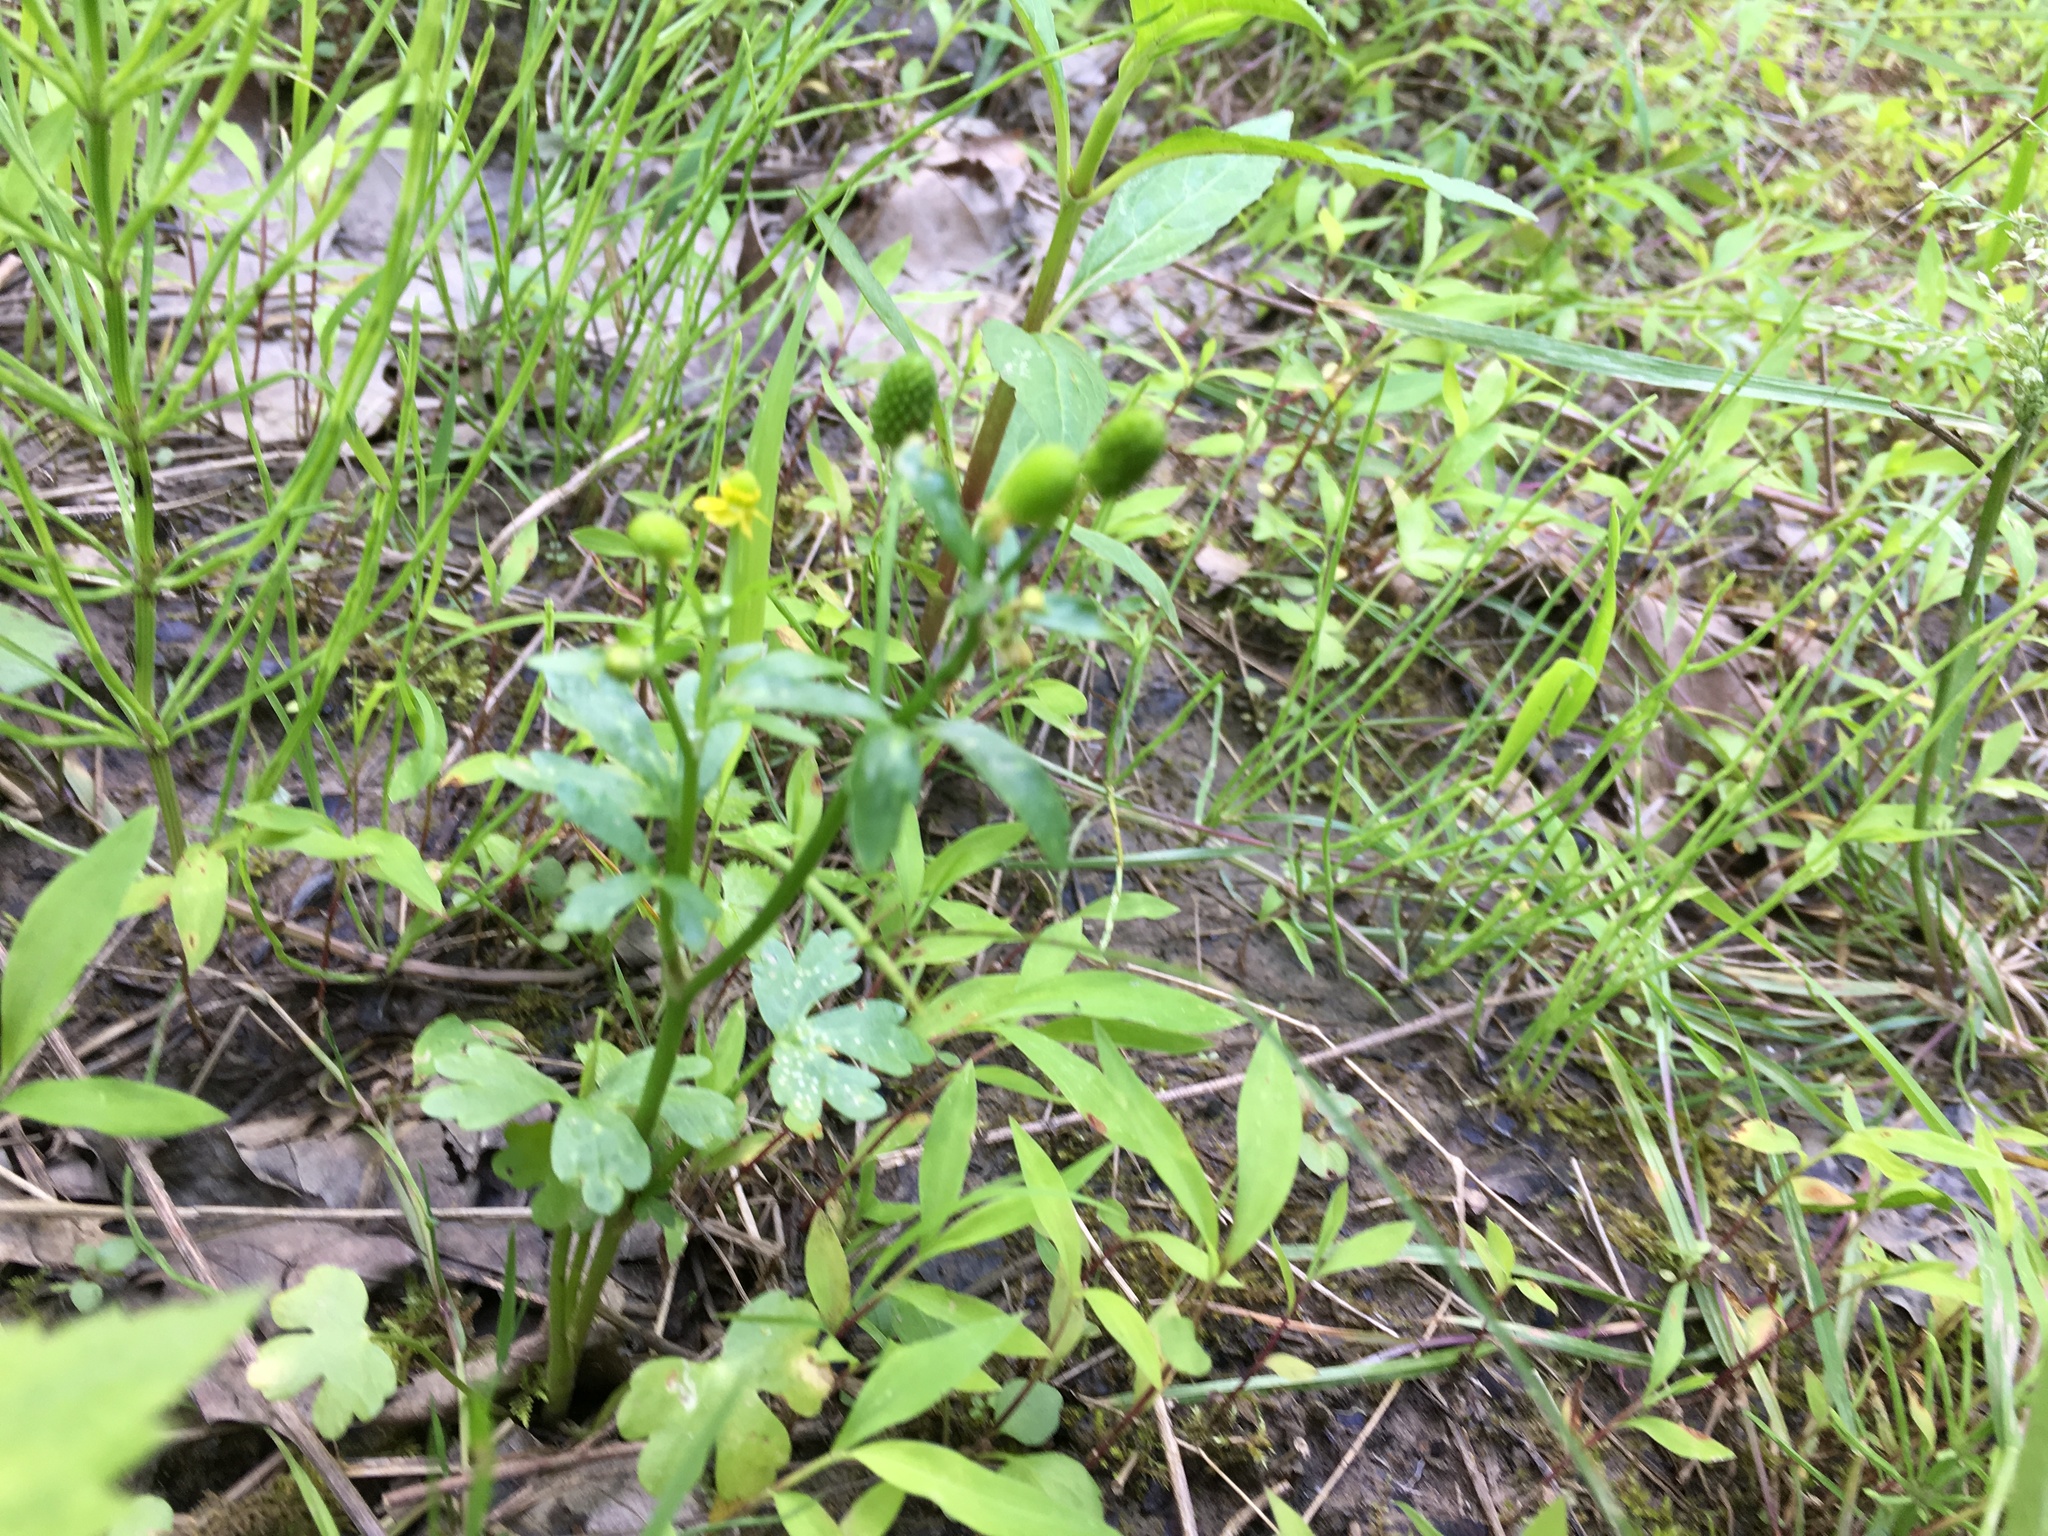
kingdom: Plantae
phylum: Tracheophyta
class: Magnoliopsida
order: Ranunculales
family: Ranunculaceae
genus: Ranunculus
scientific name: Ranunculus sceleratus
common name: Celery-leaved buttercup
